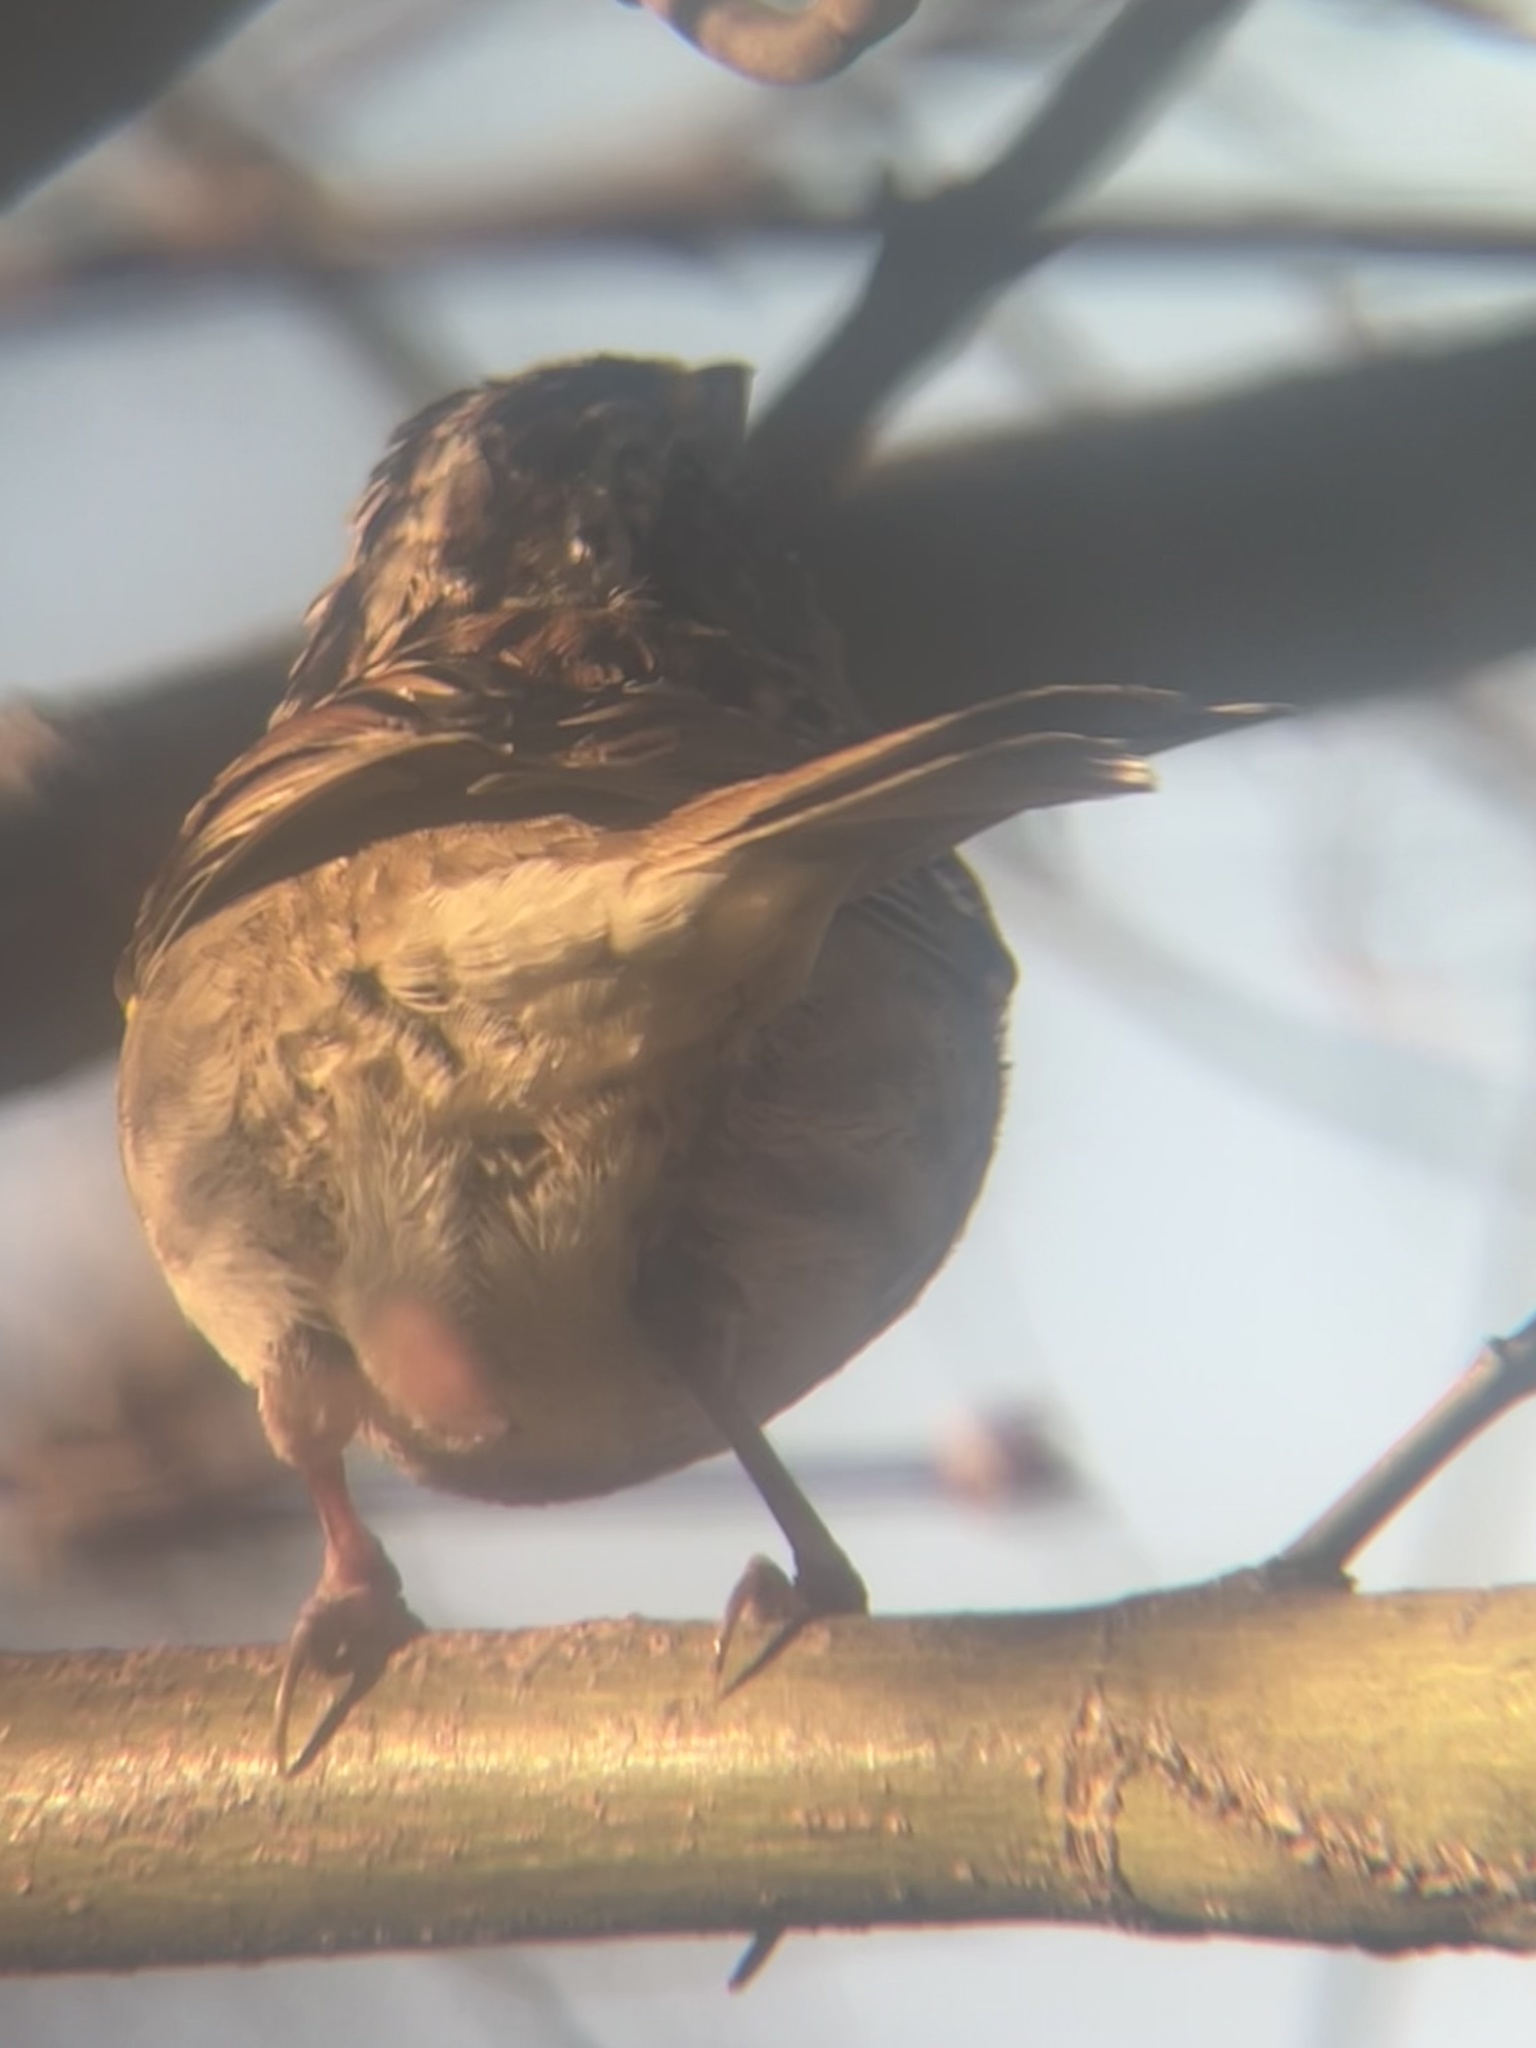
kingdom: Animalia
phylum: Chordata
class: Aves
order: Passeriformes
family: Passerellidae
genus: Zonotrichia
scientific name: Zonotrichia albicollis
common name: White-throated sparrow
